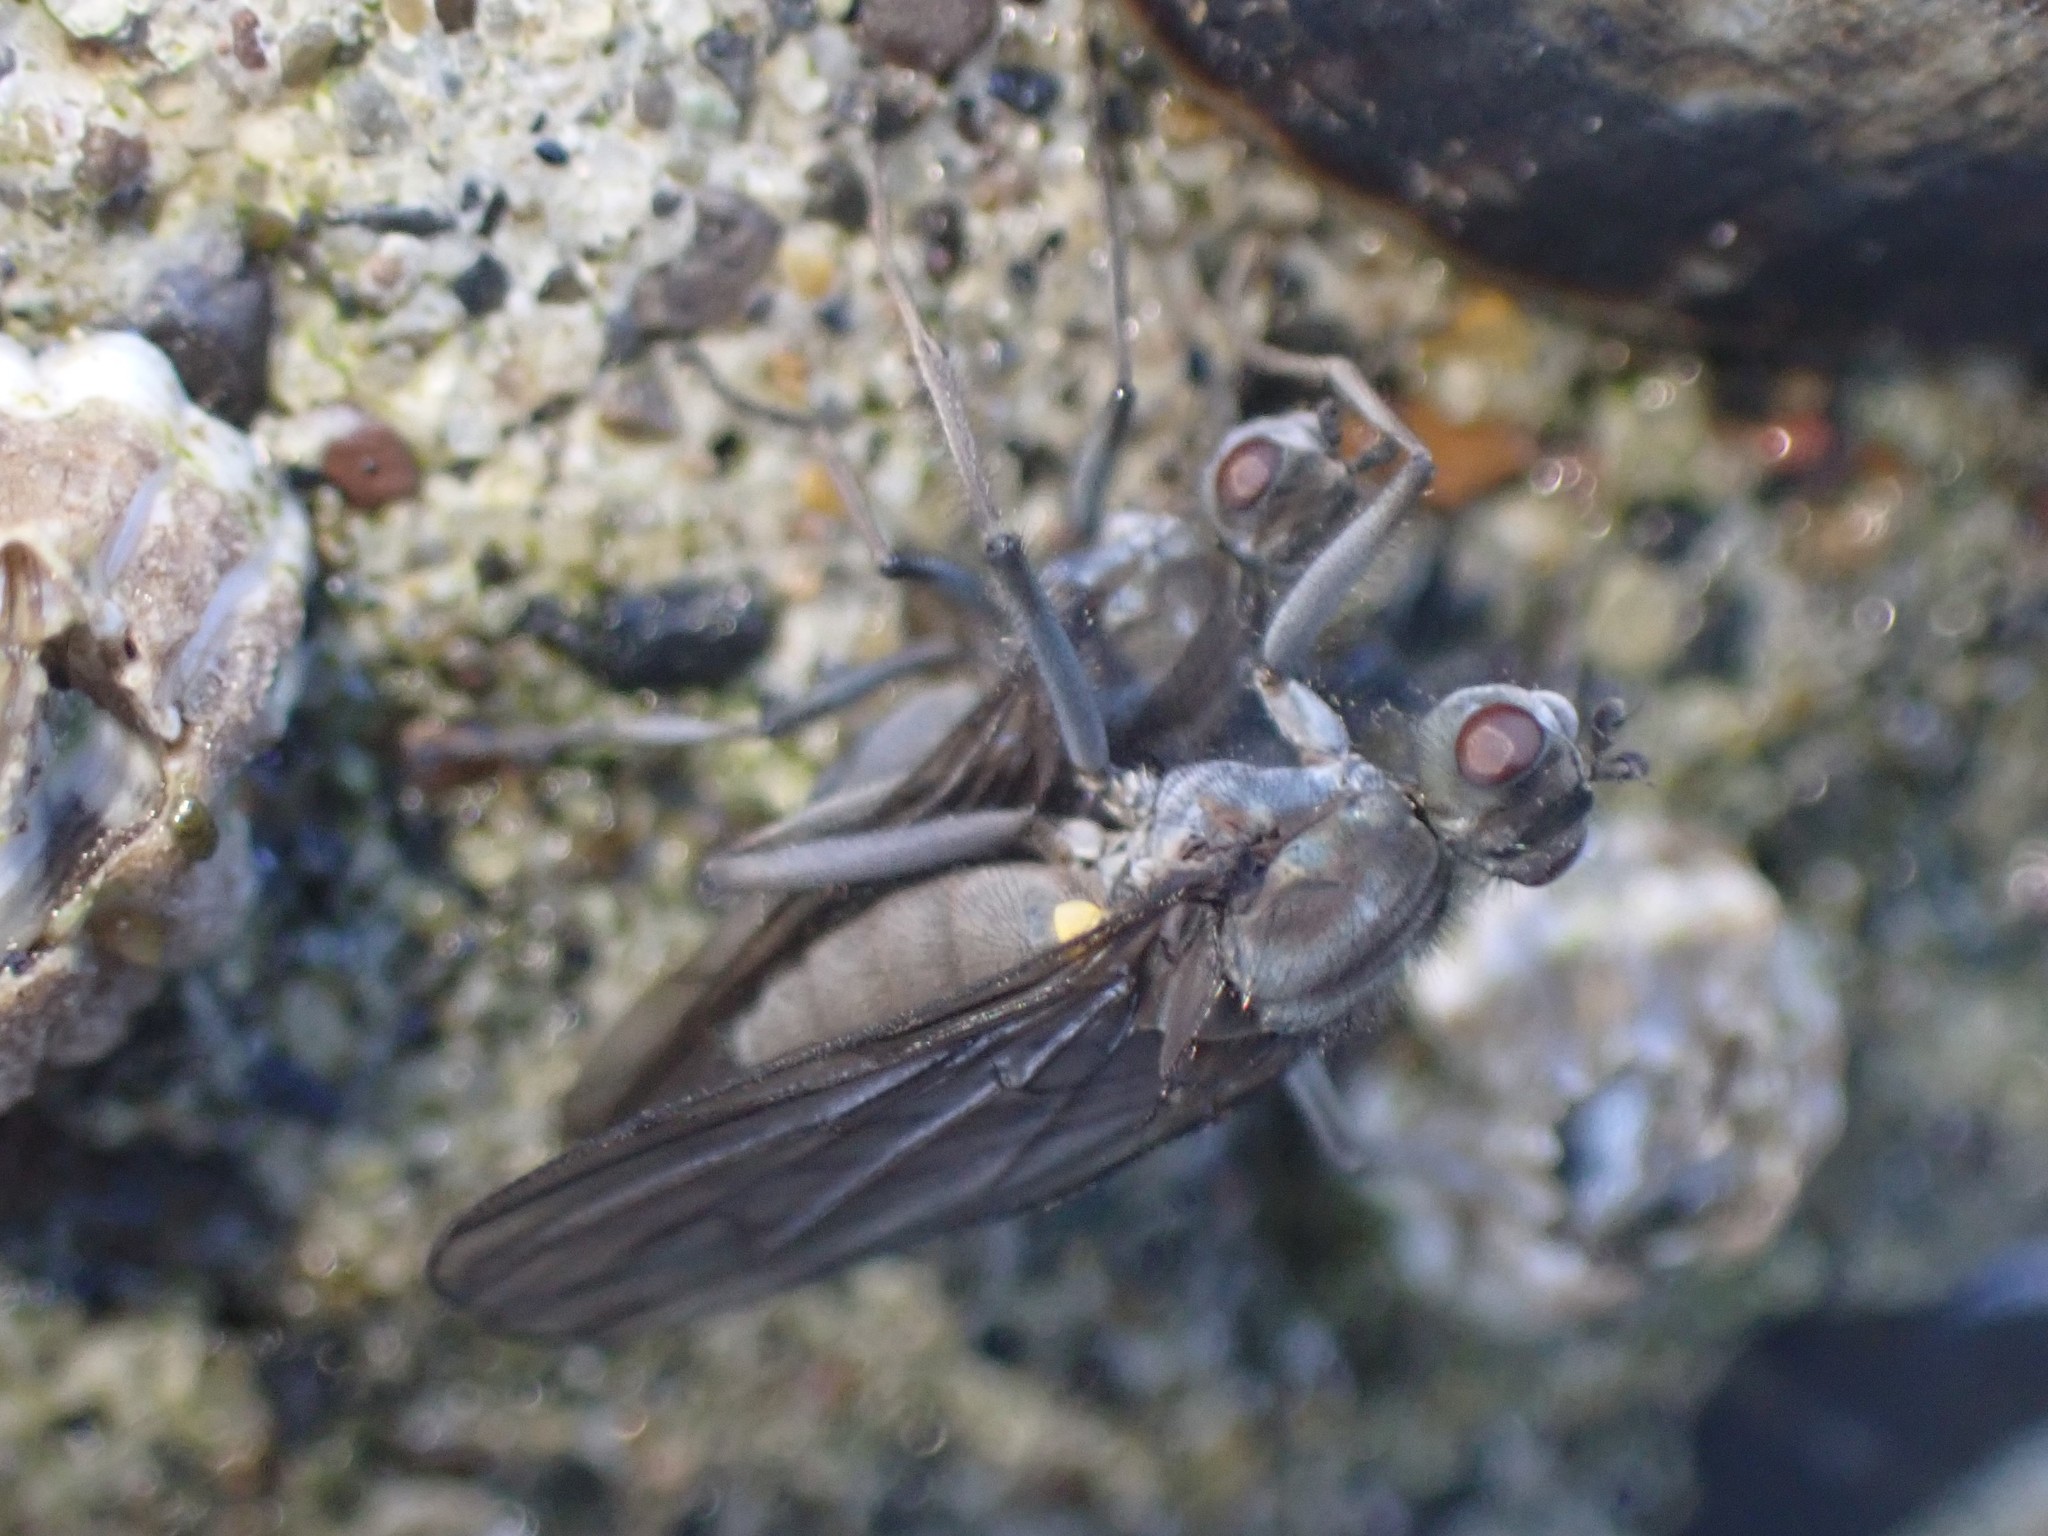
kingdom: Animalia
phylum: Arthropoda
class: Insecta
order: Diptera
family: Dryomyzidae
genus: Oedoparena
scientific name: Oedoparena glauca
